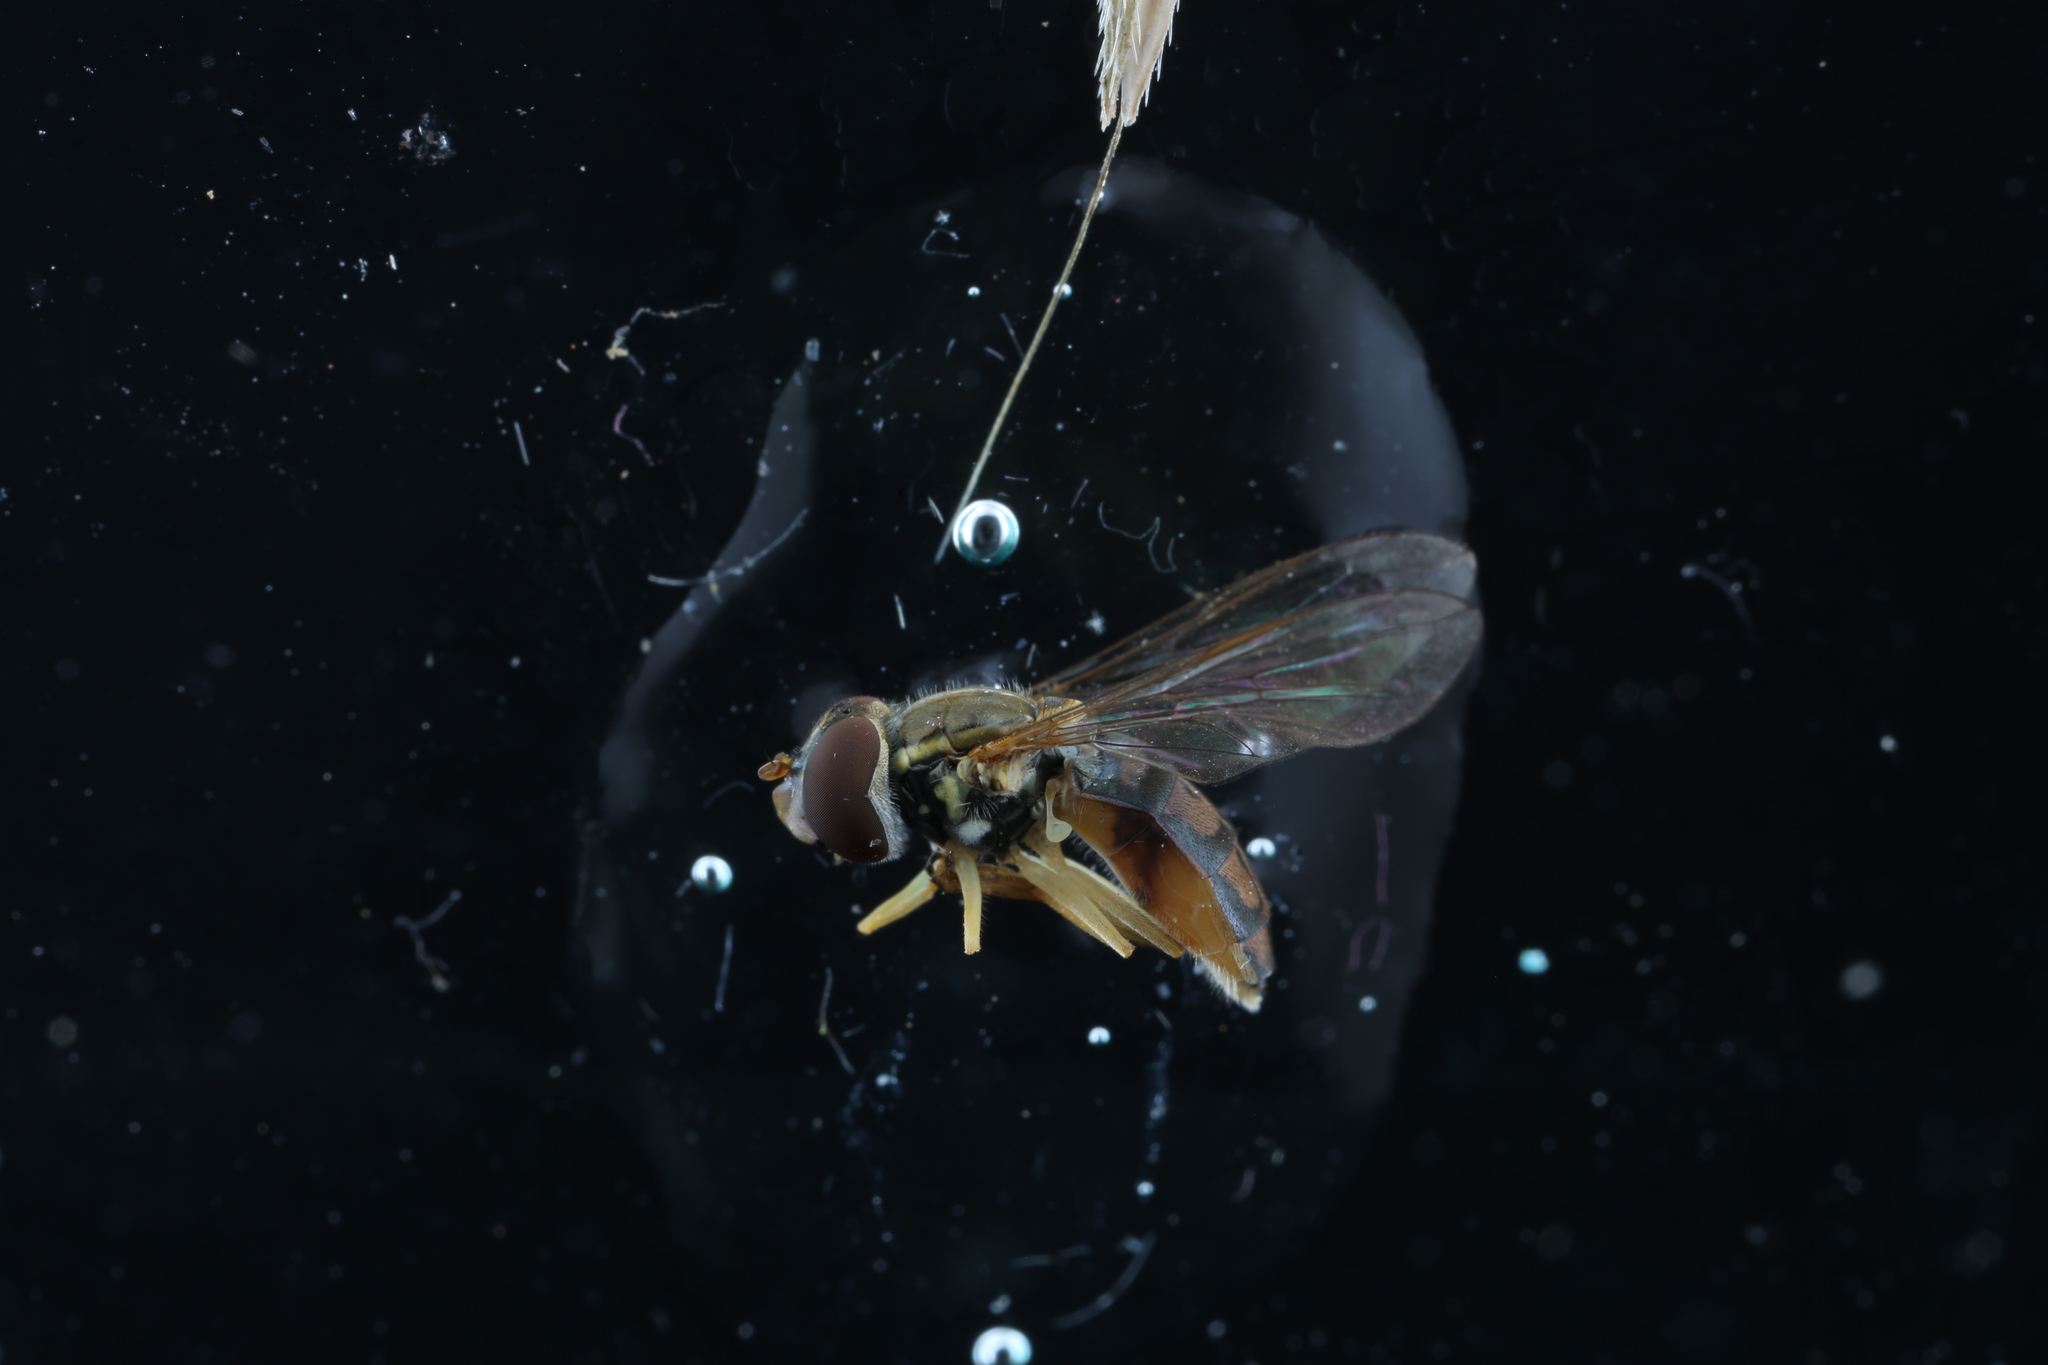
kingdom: Animalia
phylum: Arthropoda
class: Insecta
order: Diptera
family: Syrphidae
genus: Toxomerus
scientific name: Toxomerus marginatus
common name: Syrphid fly
